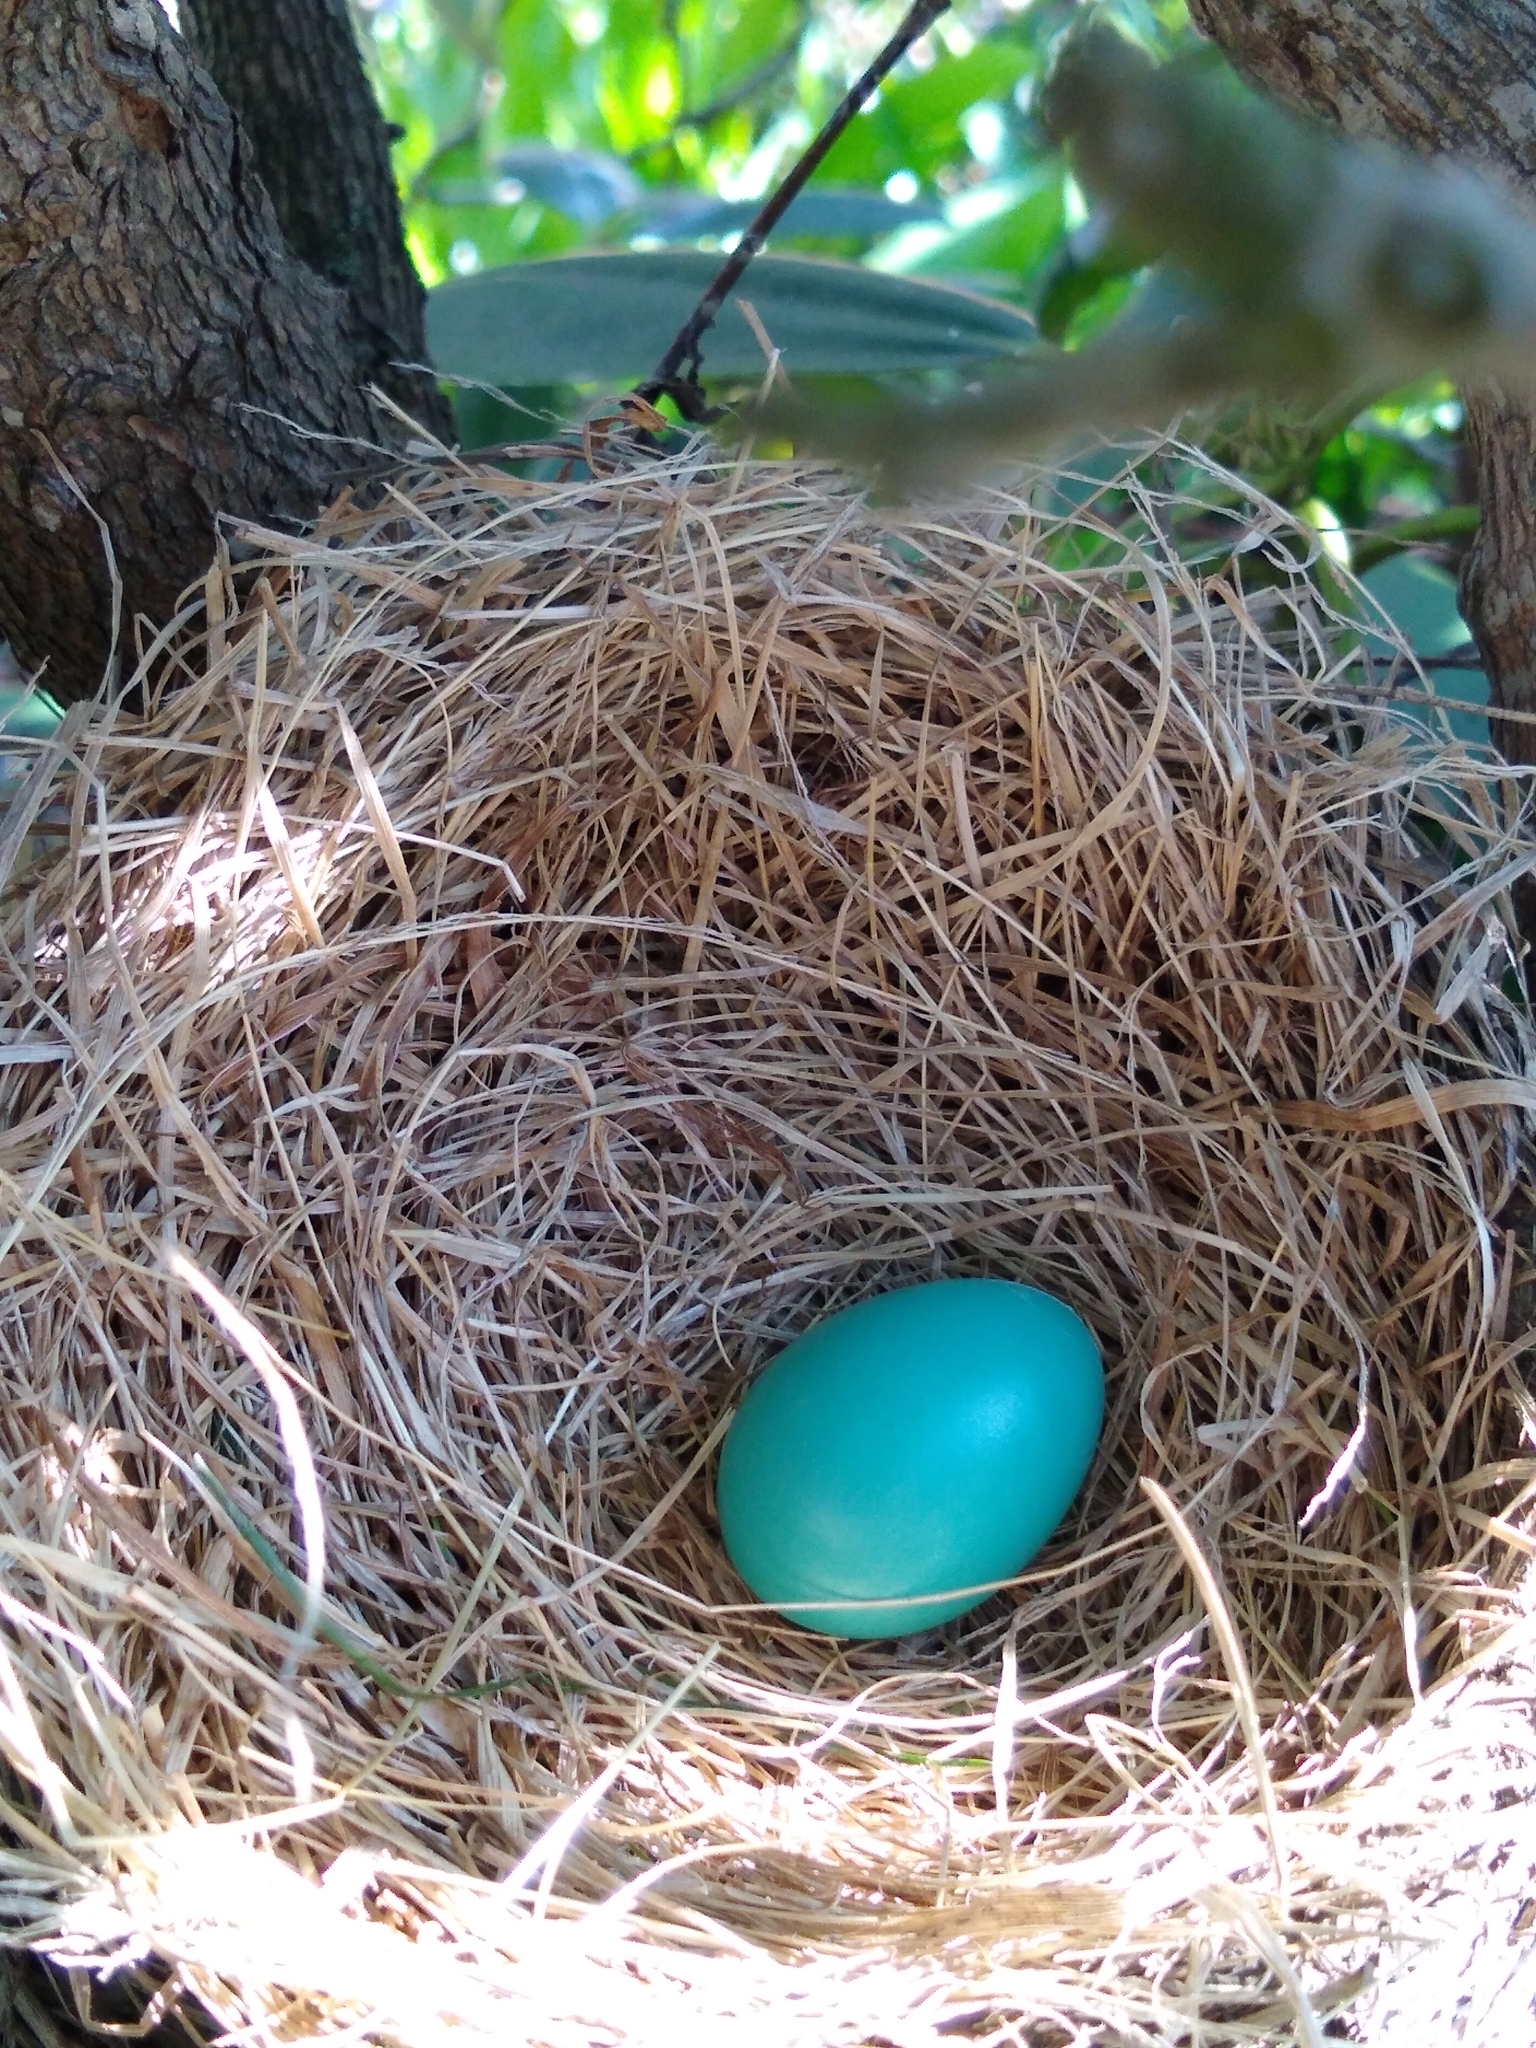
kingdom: Animalia
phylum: Chordata
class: Aves
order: Passeriformes
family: Turdidae
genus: Turdus
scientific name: Turdus migratorius
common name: American robin
